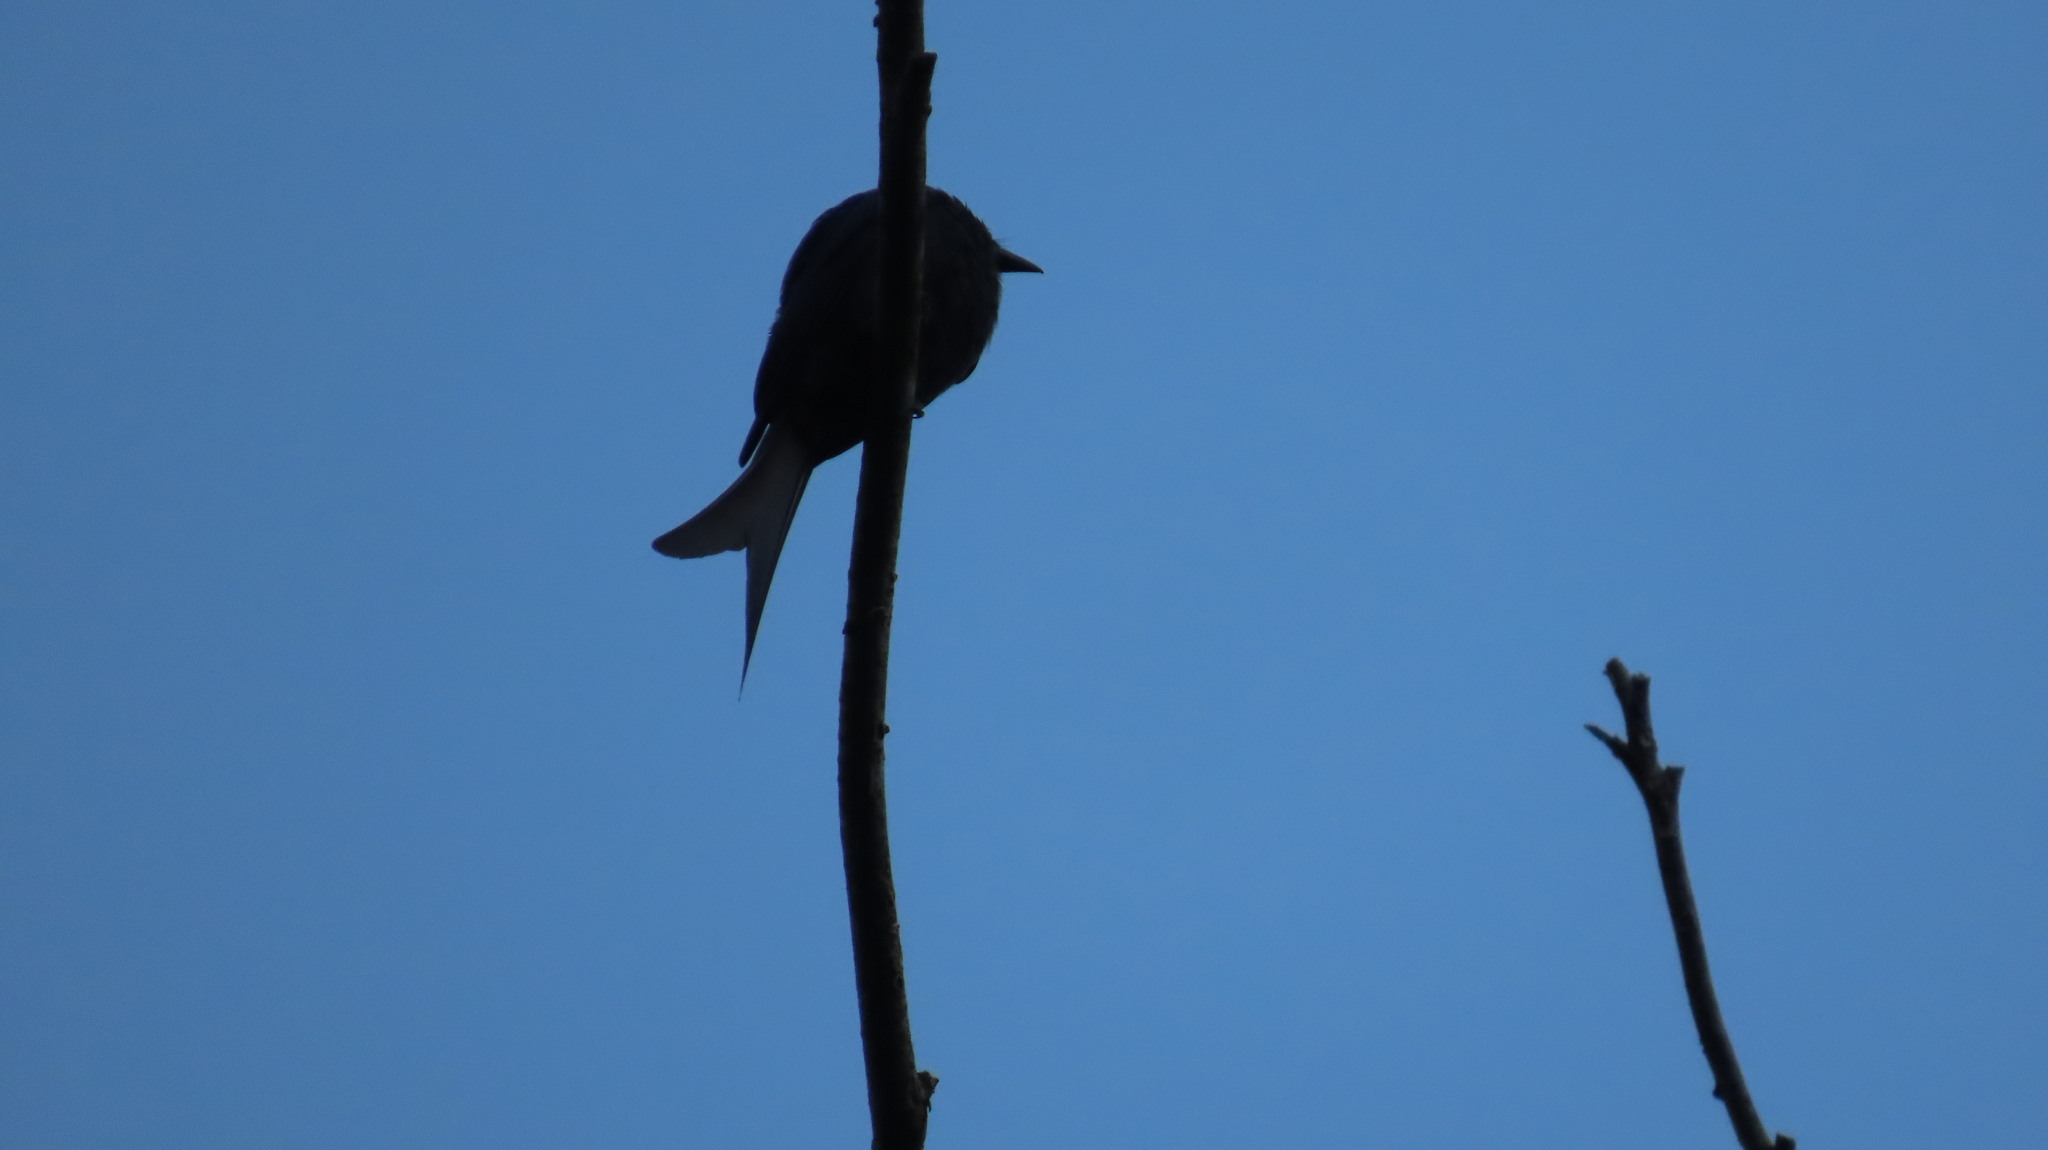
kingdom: Animalia
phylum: Chordata
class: Aves
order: Passeriformes
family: Dicruridae
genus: Dicrurus
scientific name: Dicrurus leucophaeus
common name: Ashy drongo
